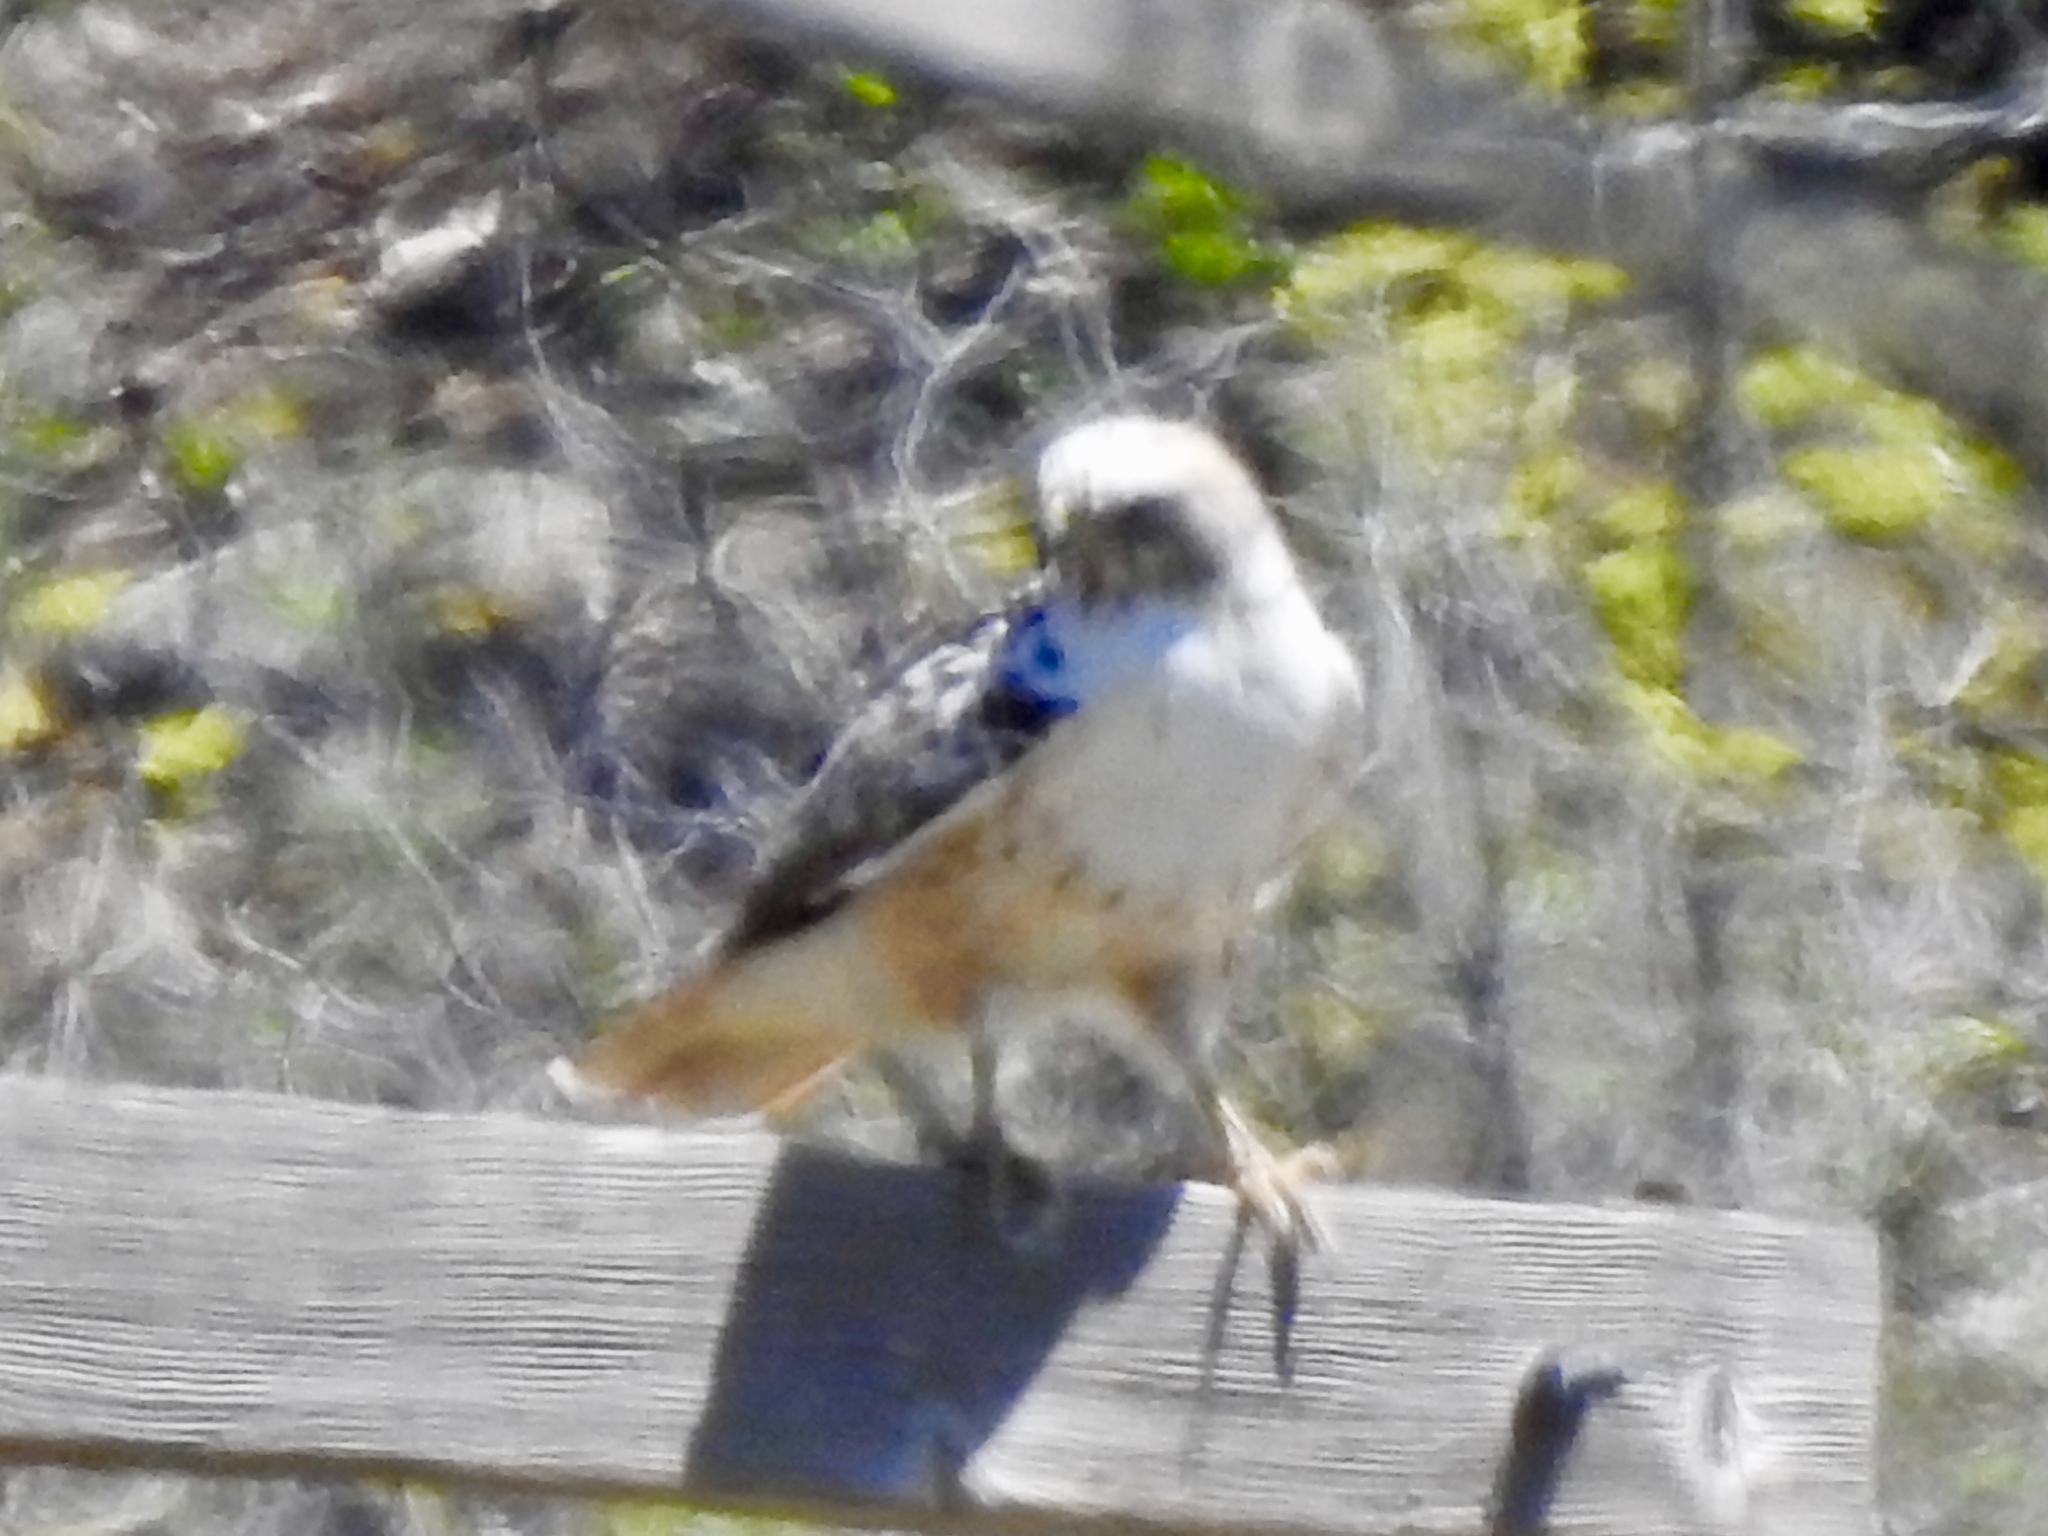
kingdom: Animalia
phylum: Chordata
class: Aves
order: Accipitriformes
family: Accipitridae
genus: Buteo
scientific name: Buteo jamaicensis
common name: Red-tailed hawk
